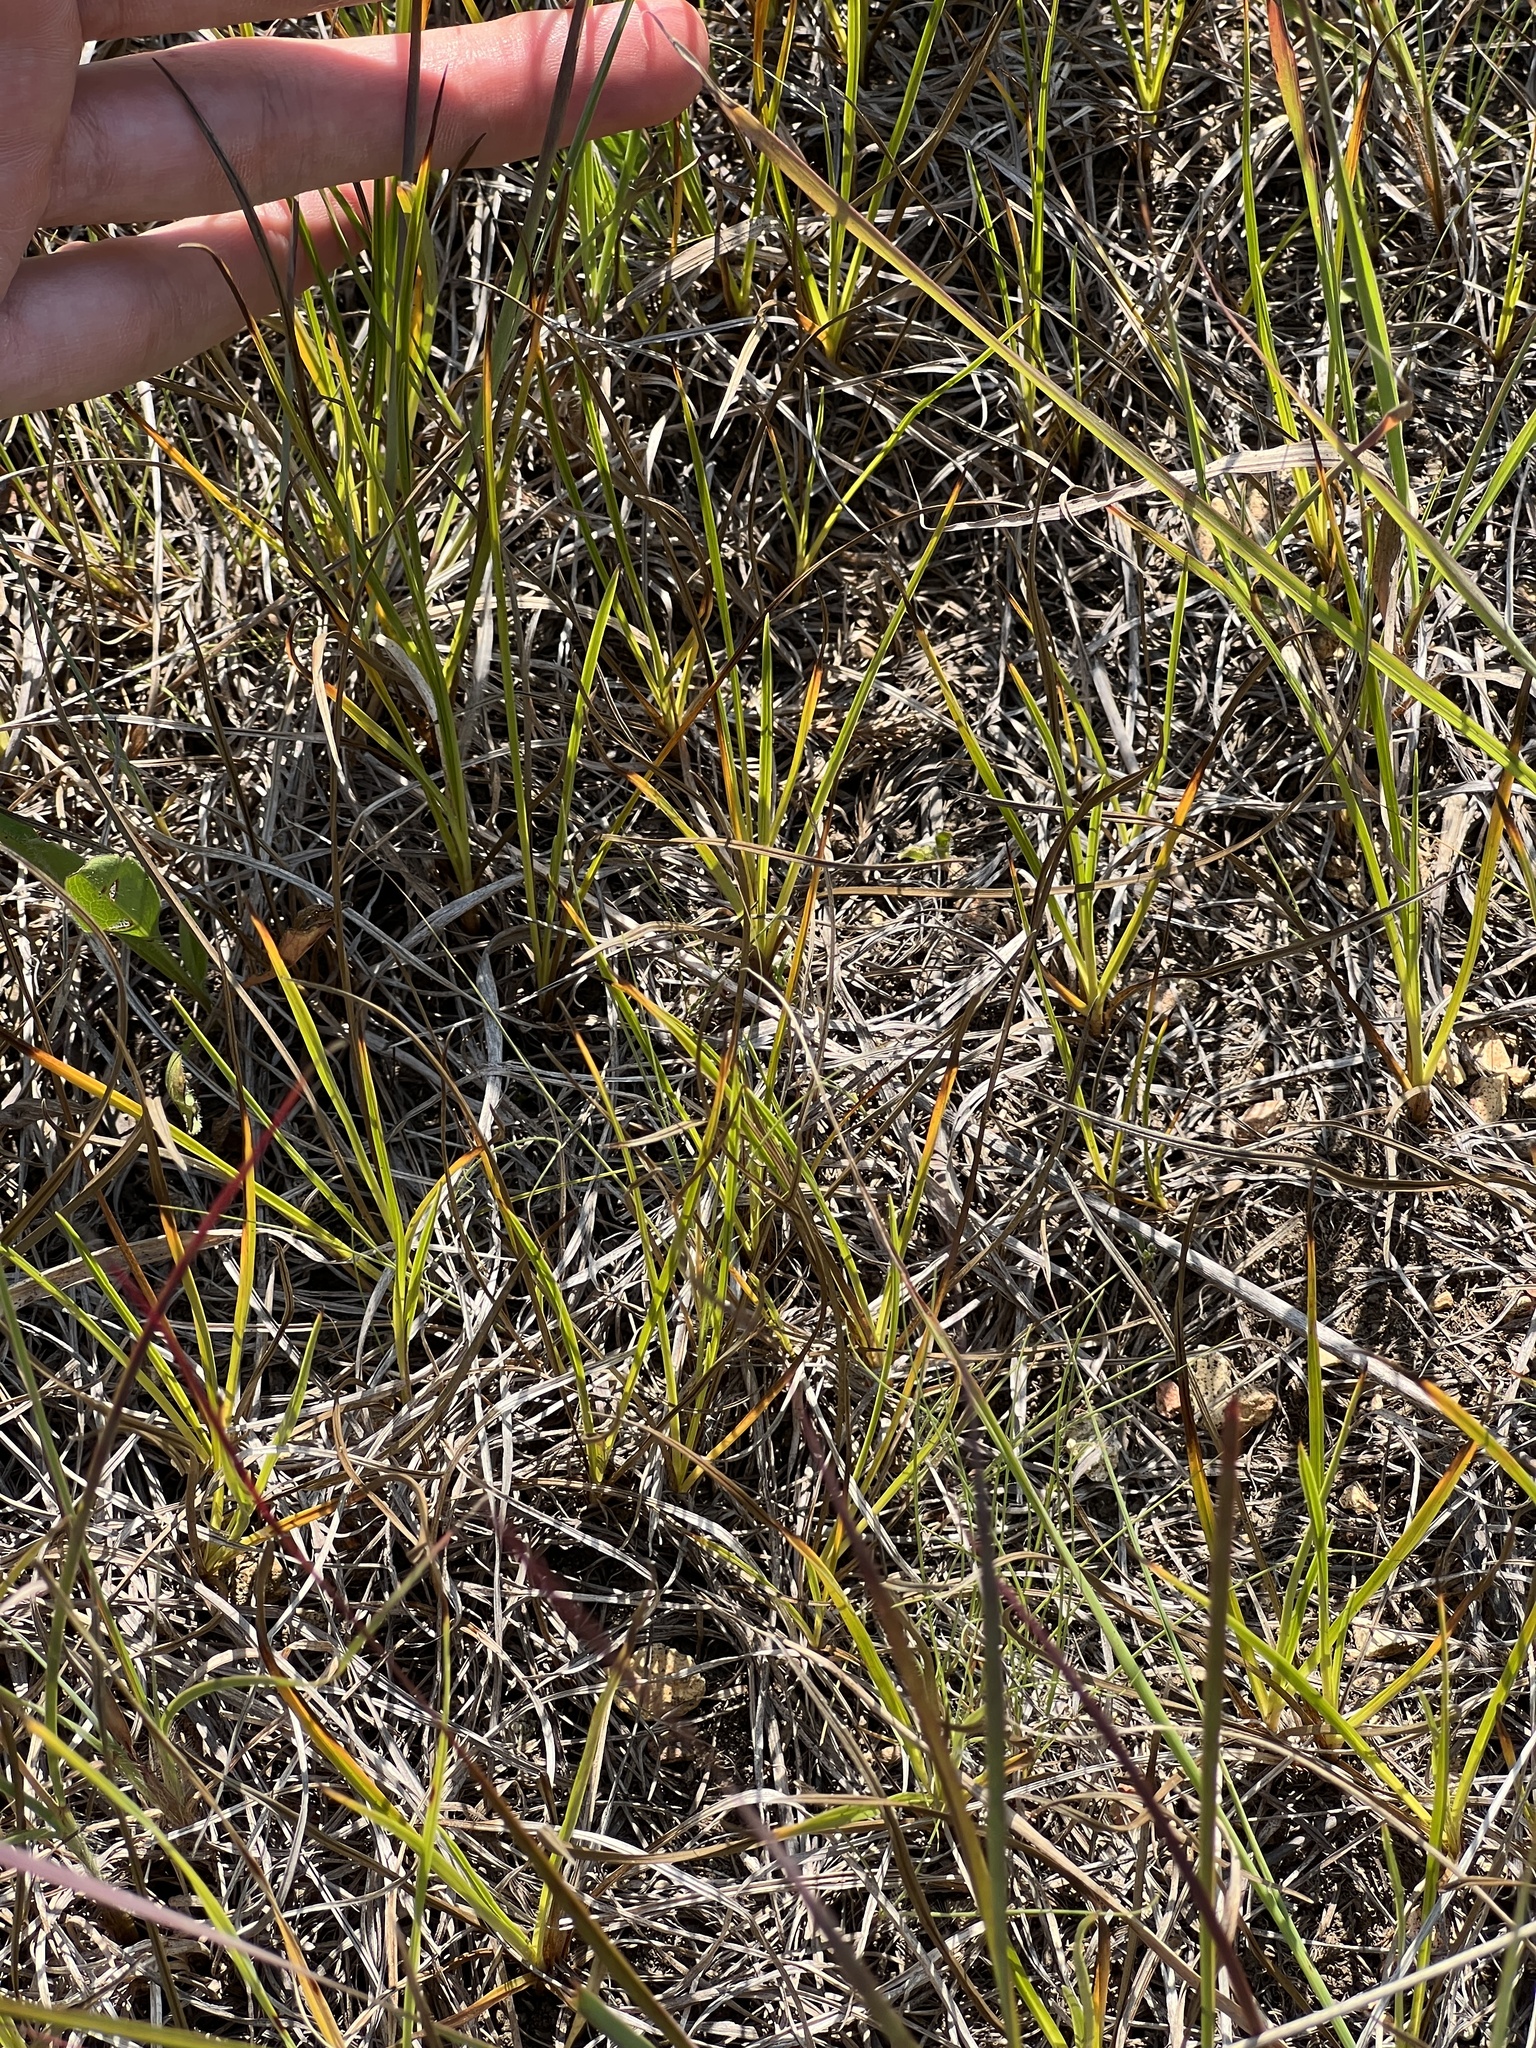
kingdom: Plantae
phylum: Tracheophyta
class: Liliopsida
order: Poales
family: Cyperaceae
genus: Carex
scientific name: Carex crawei
